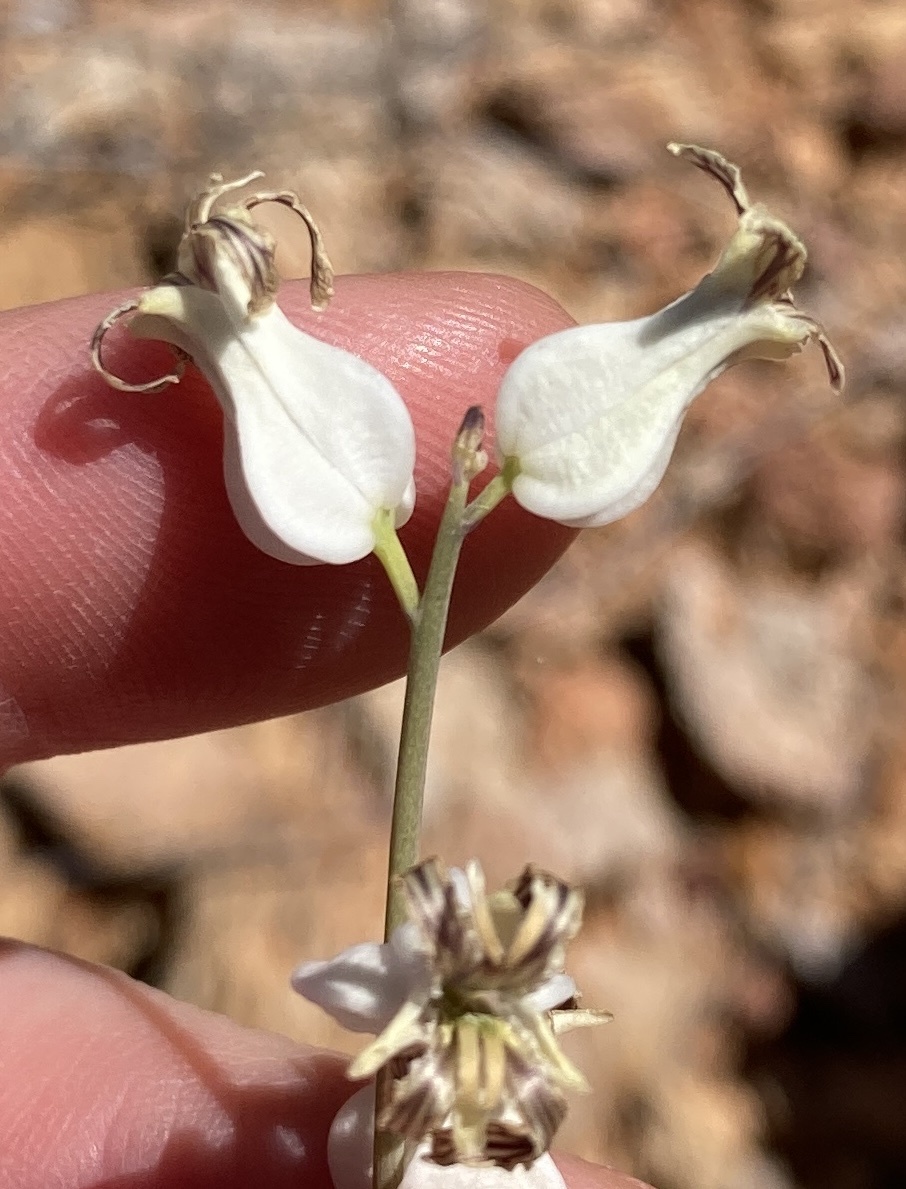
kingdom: Plantae
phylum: Tracheophyta
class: Magnoliopsida
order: Brassicales
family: Brassicaceae
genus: Streptanthus
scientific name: Streptanthus carinatus
